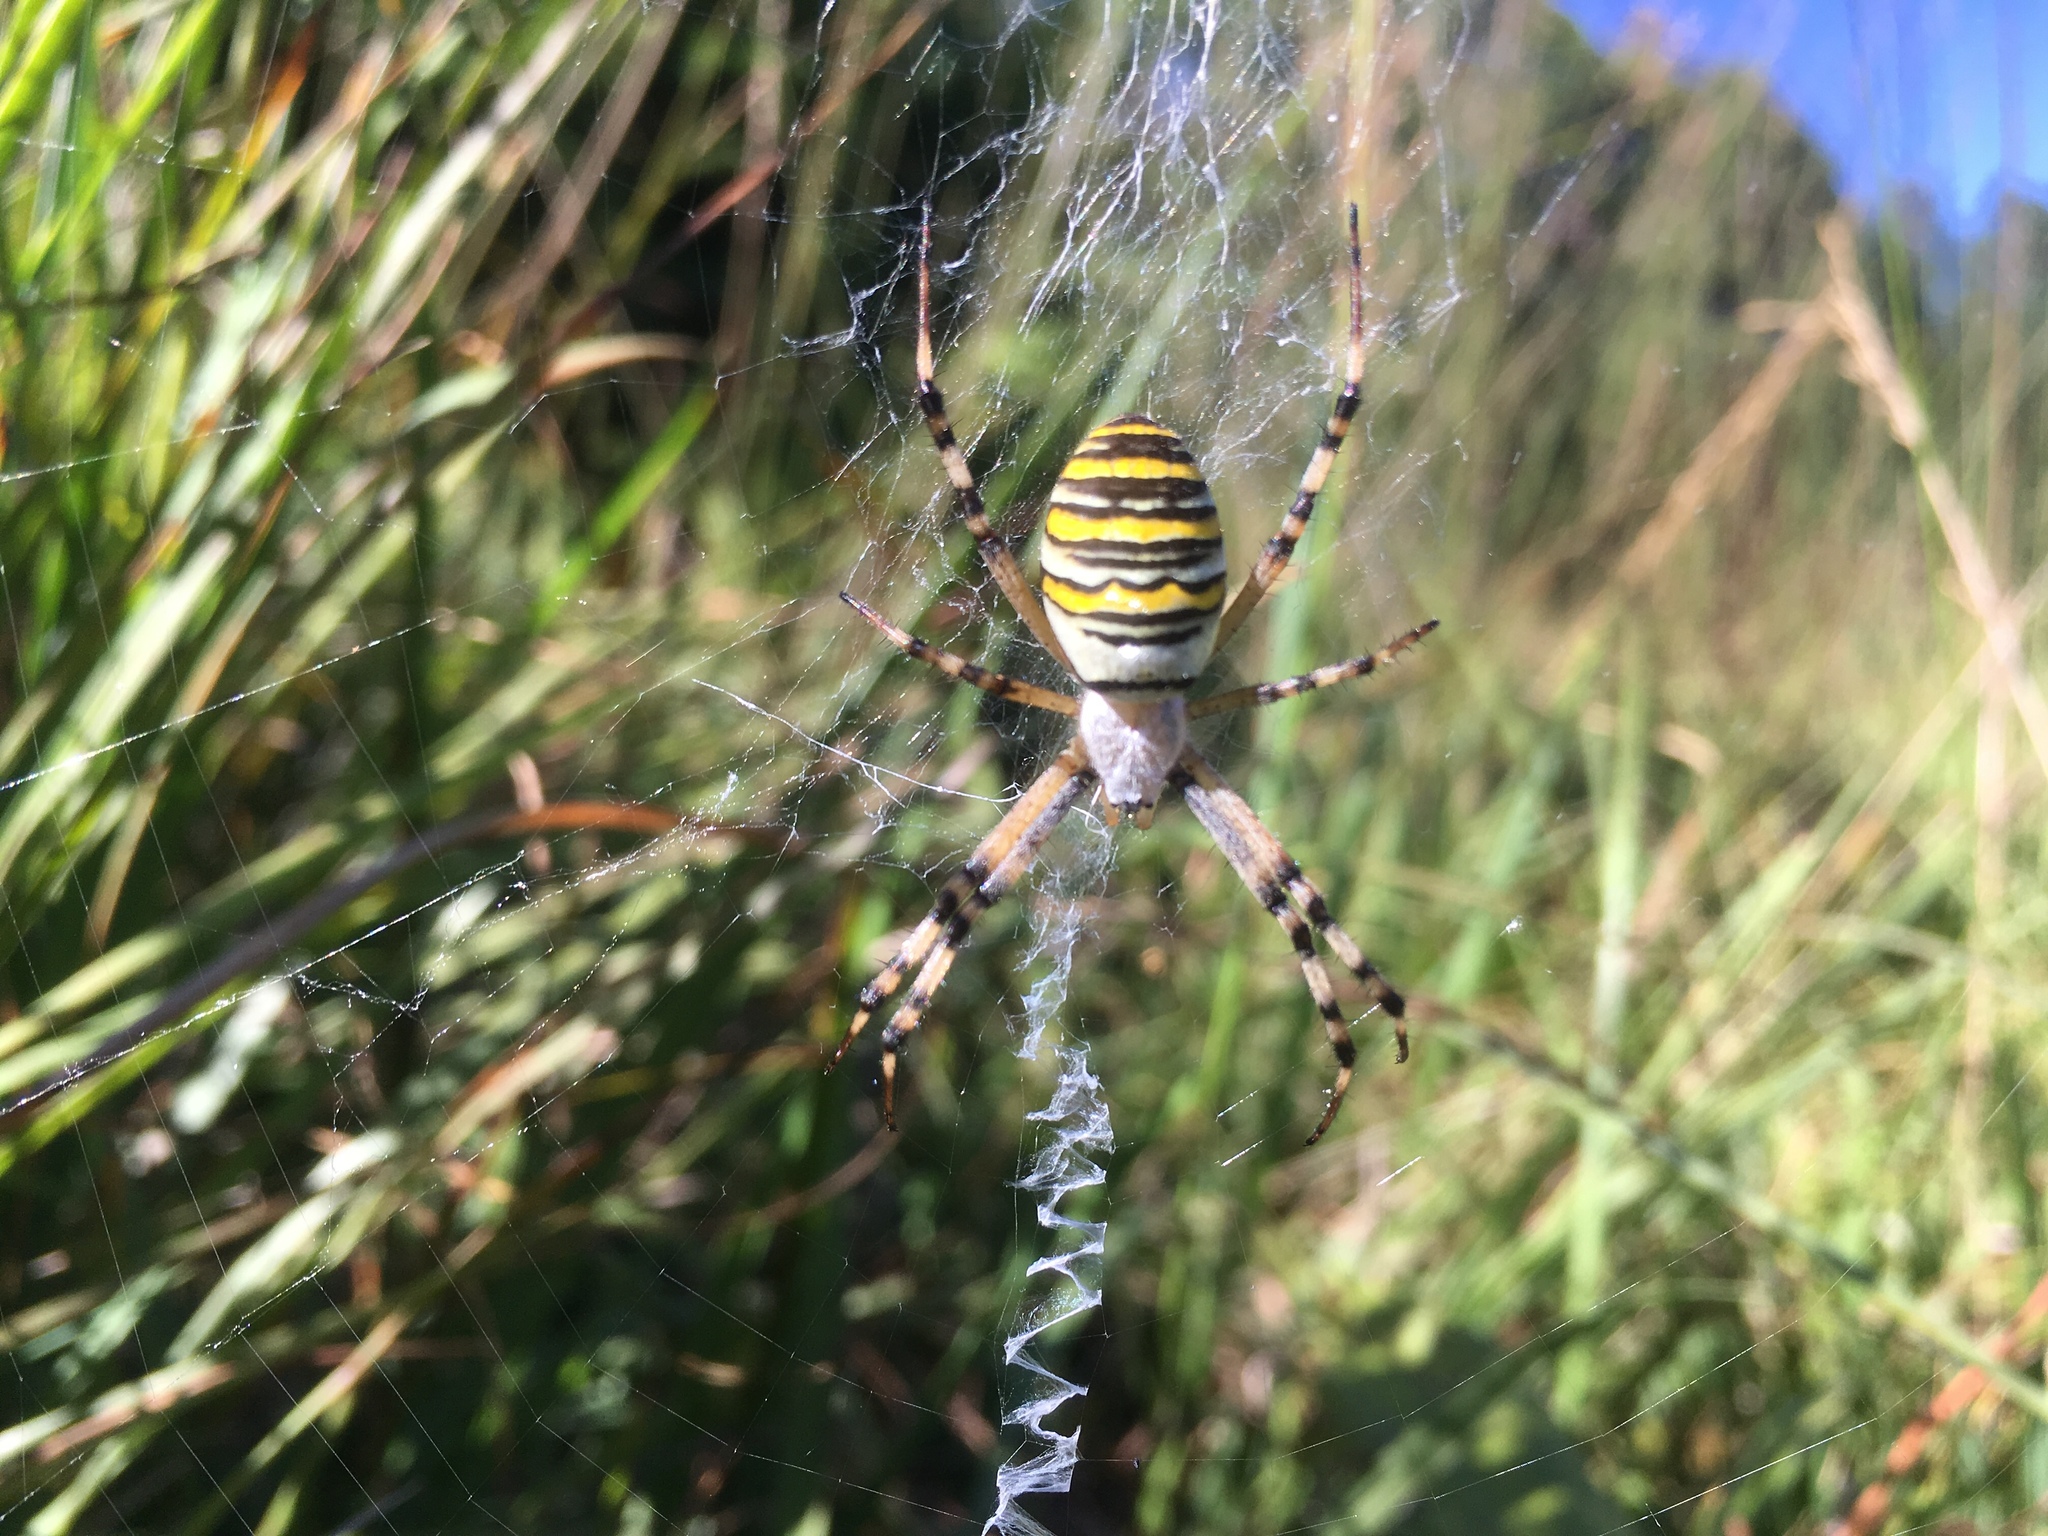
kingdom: Animalia
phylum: Arthropoda
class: Arachnida
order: Araneae
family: Araneidae
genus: Argiope
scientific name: Argiope bruennichi
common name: Wasp spider
